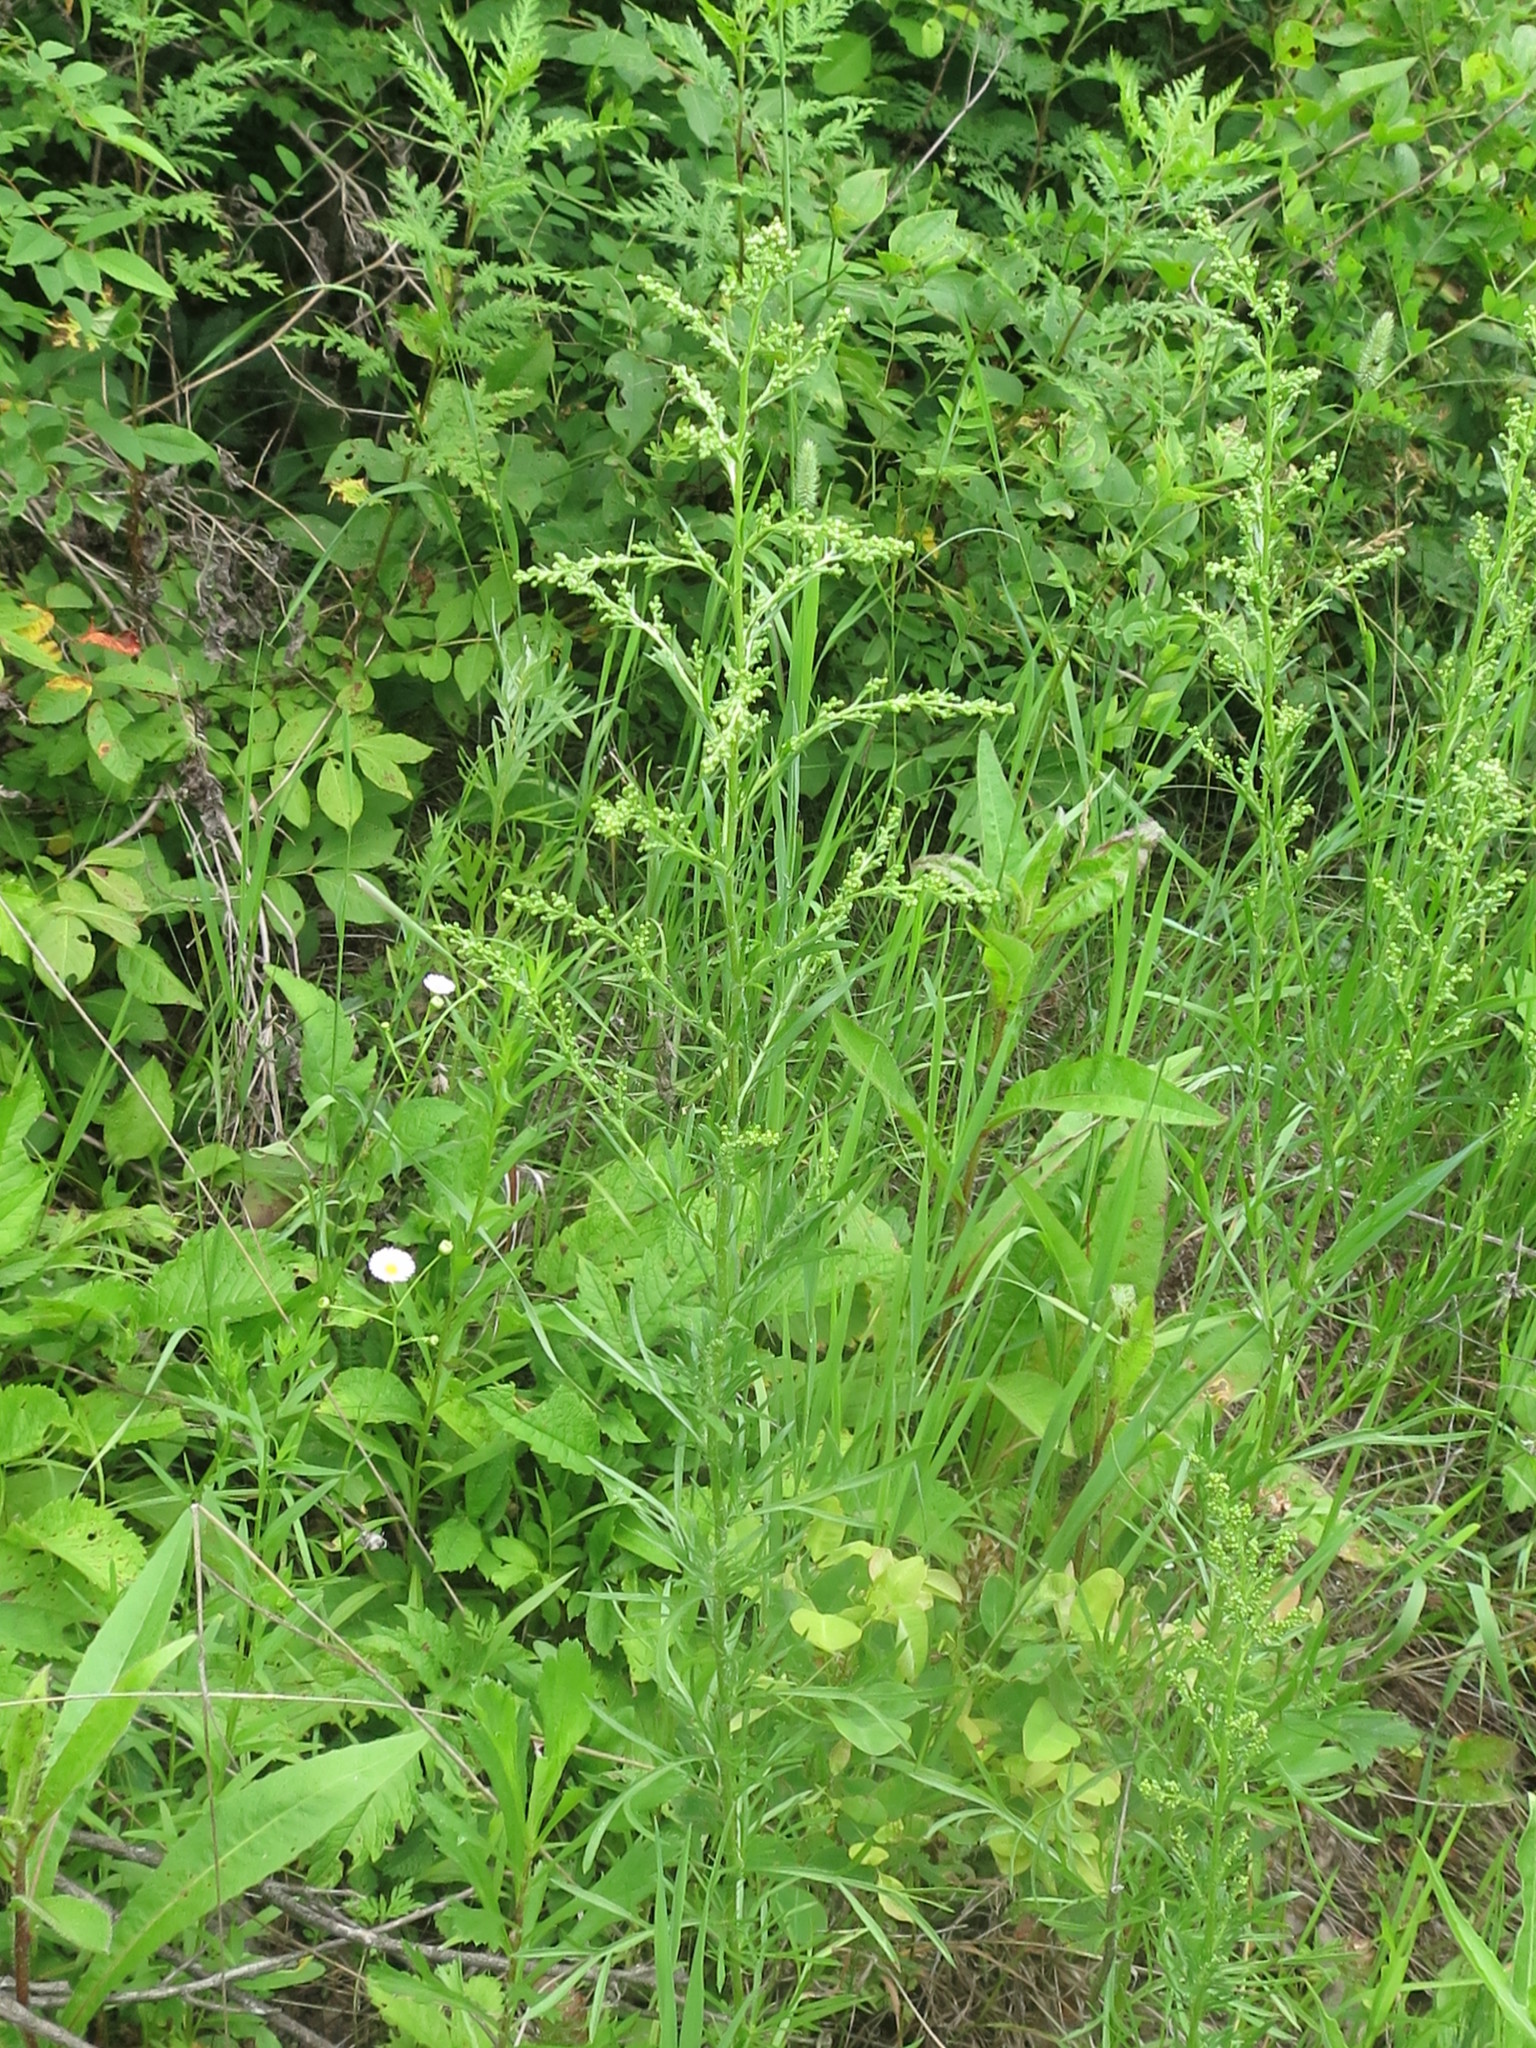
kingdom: Plantae
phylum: Tracheophyta
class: Magnoliopsida
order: Asterales
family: Asteraceae
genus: Artemisia
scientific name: Artemisia manshurica
